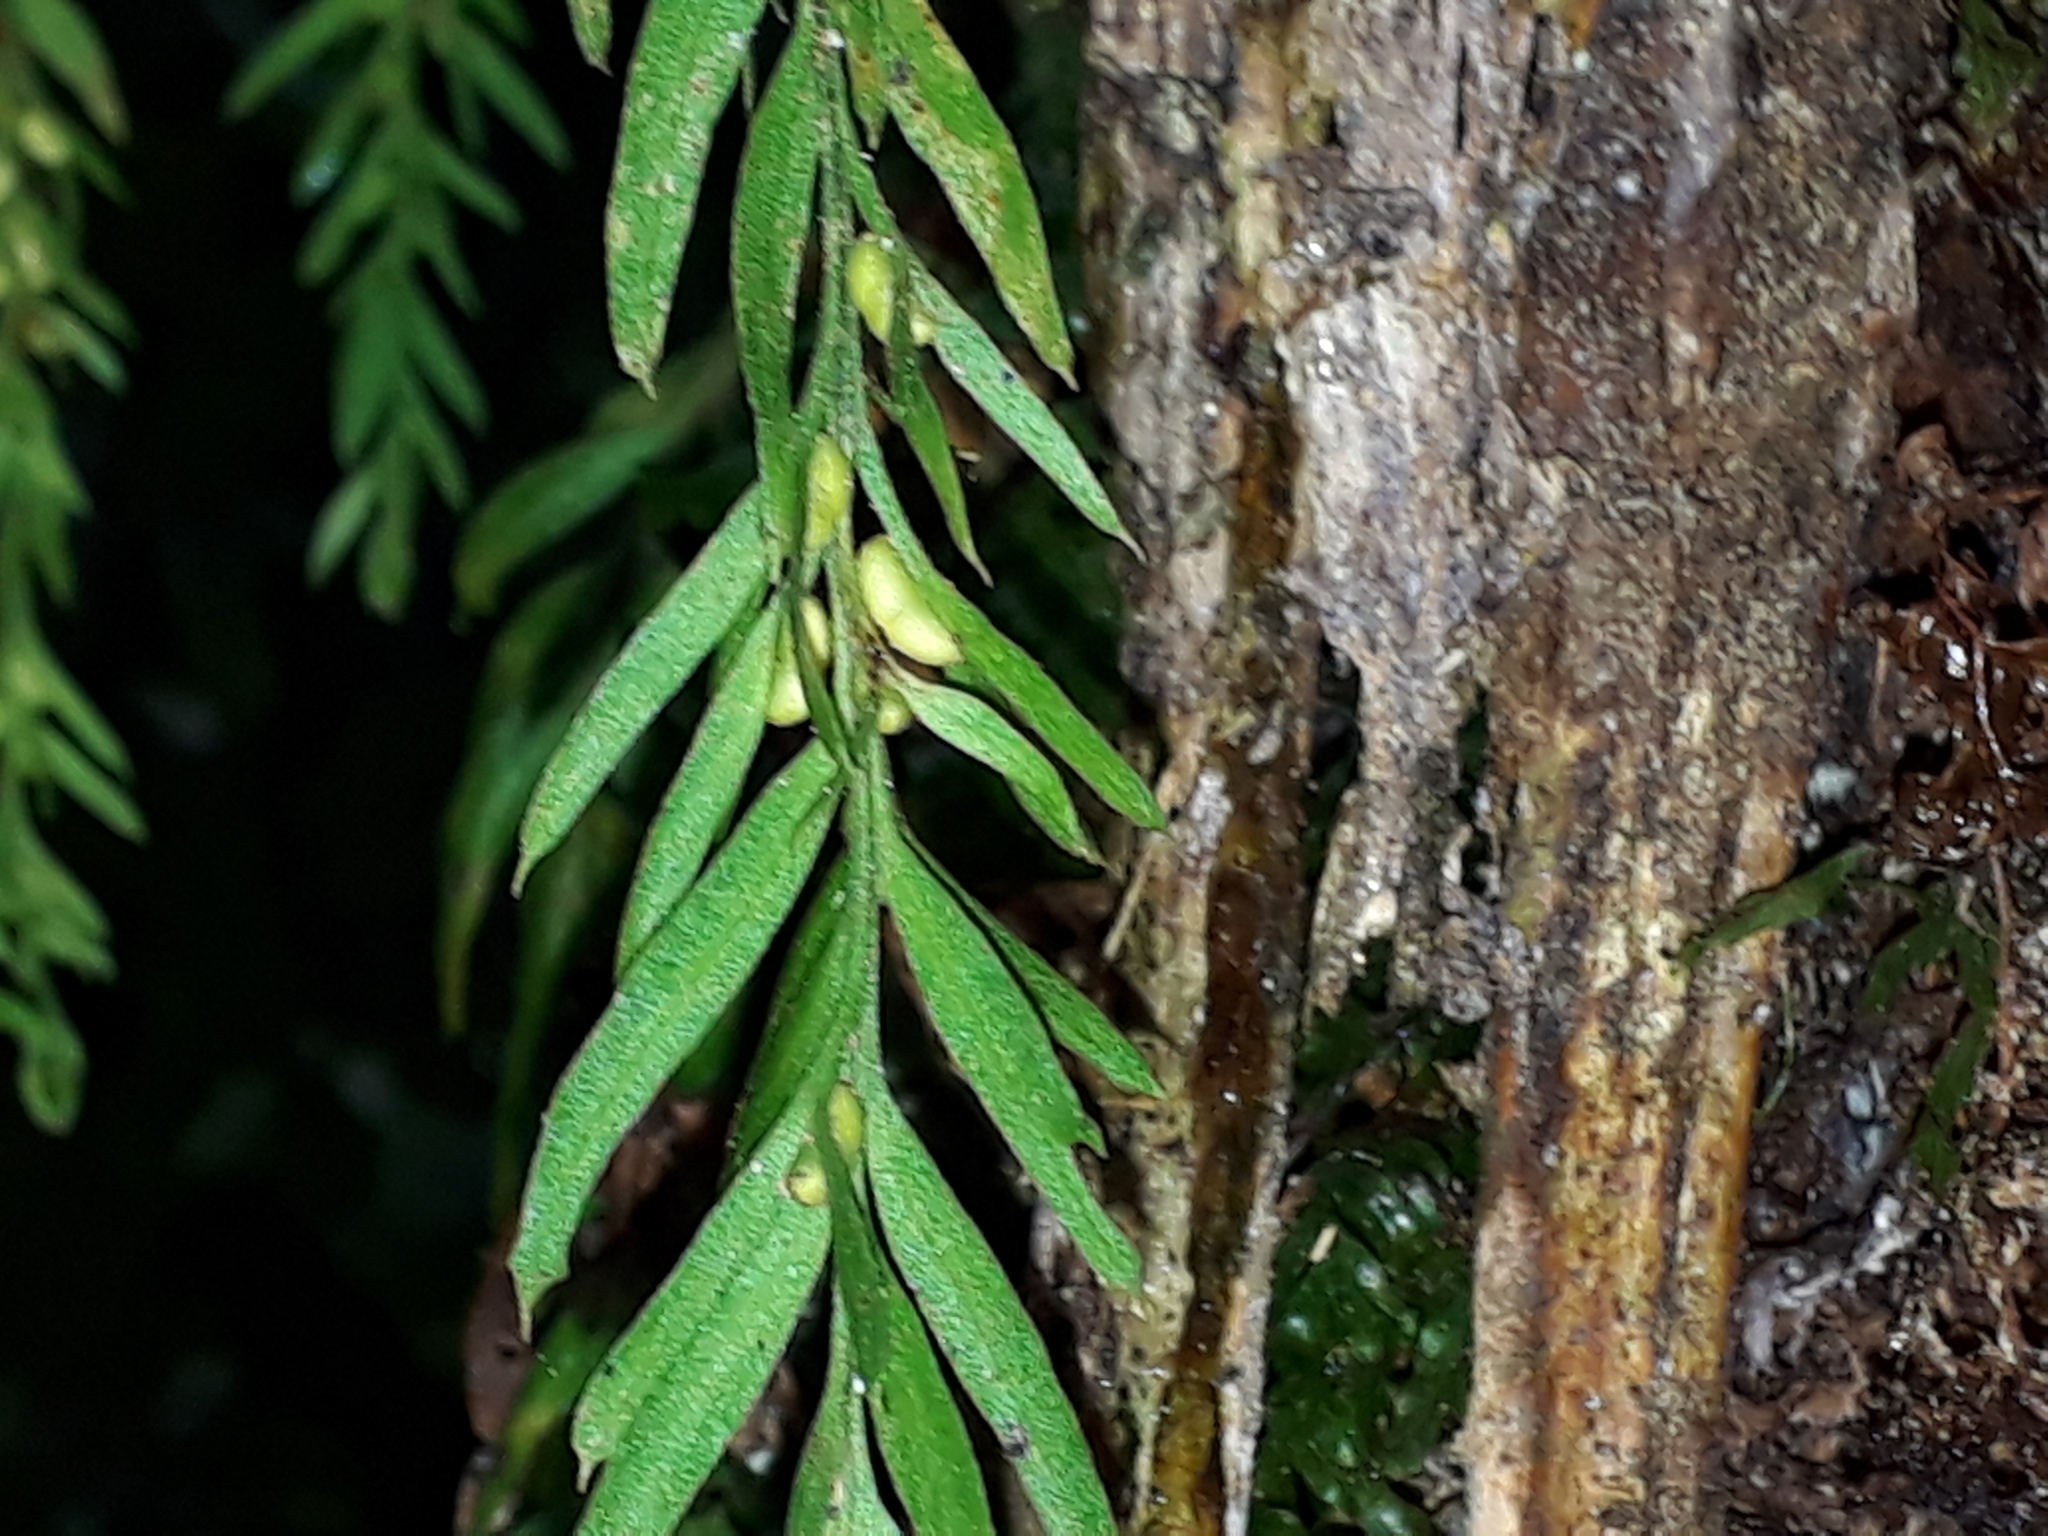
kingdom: Plantae
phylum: Tracheophyta
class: Polypodiopsida
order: Psilotales
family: Psilotaceae
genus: Tmesipteris
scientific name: Tmesipteris elongata
